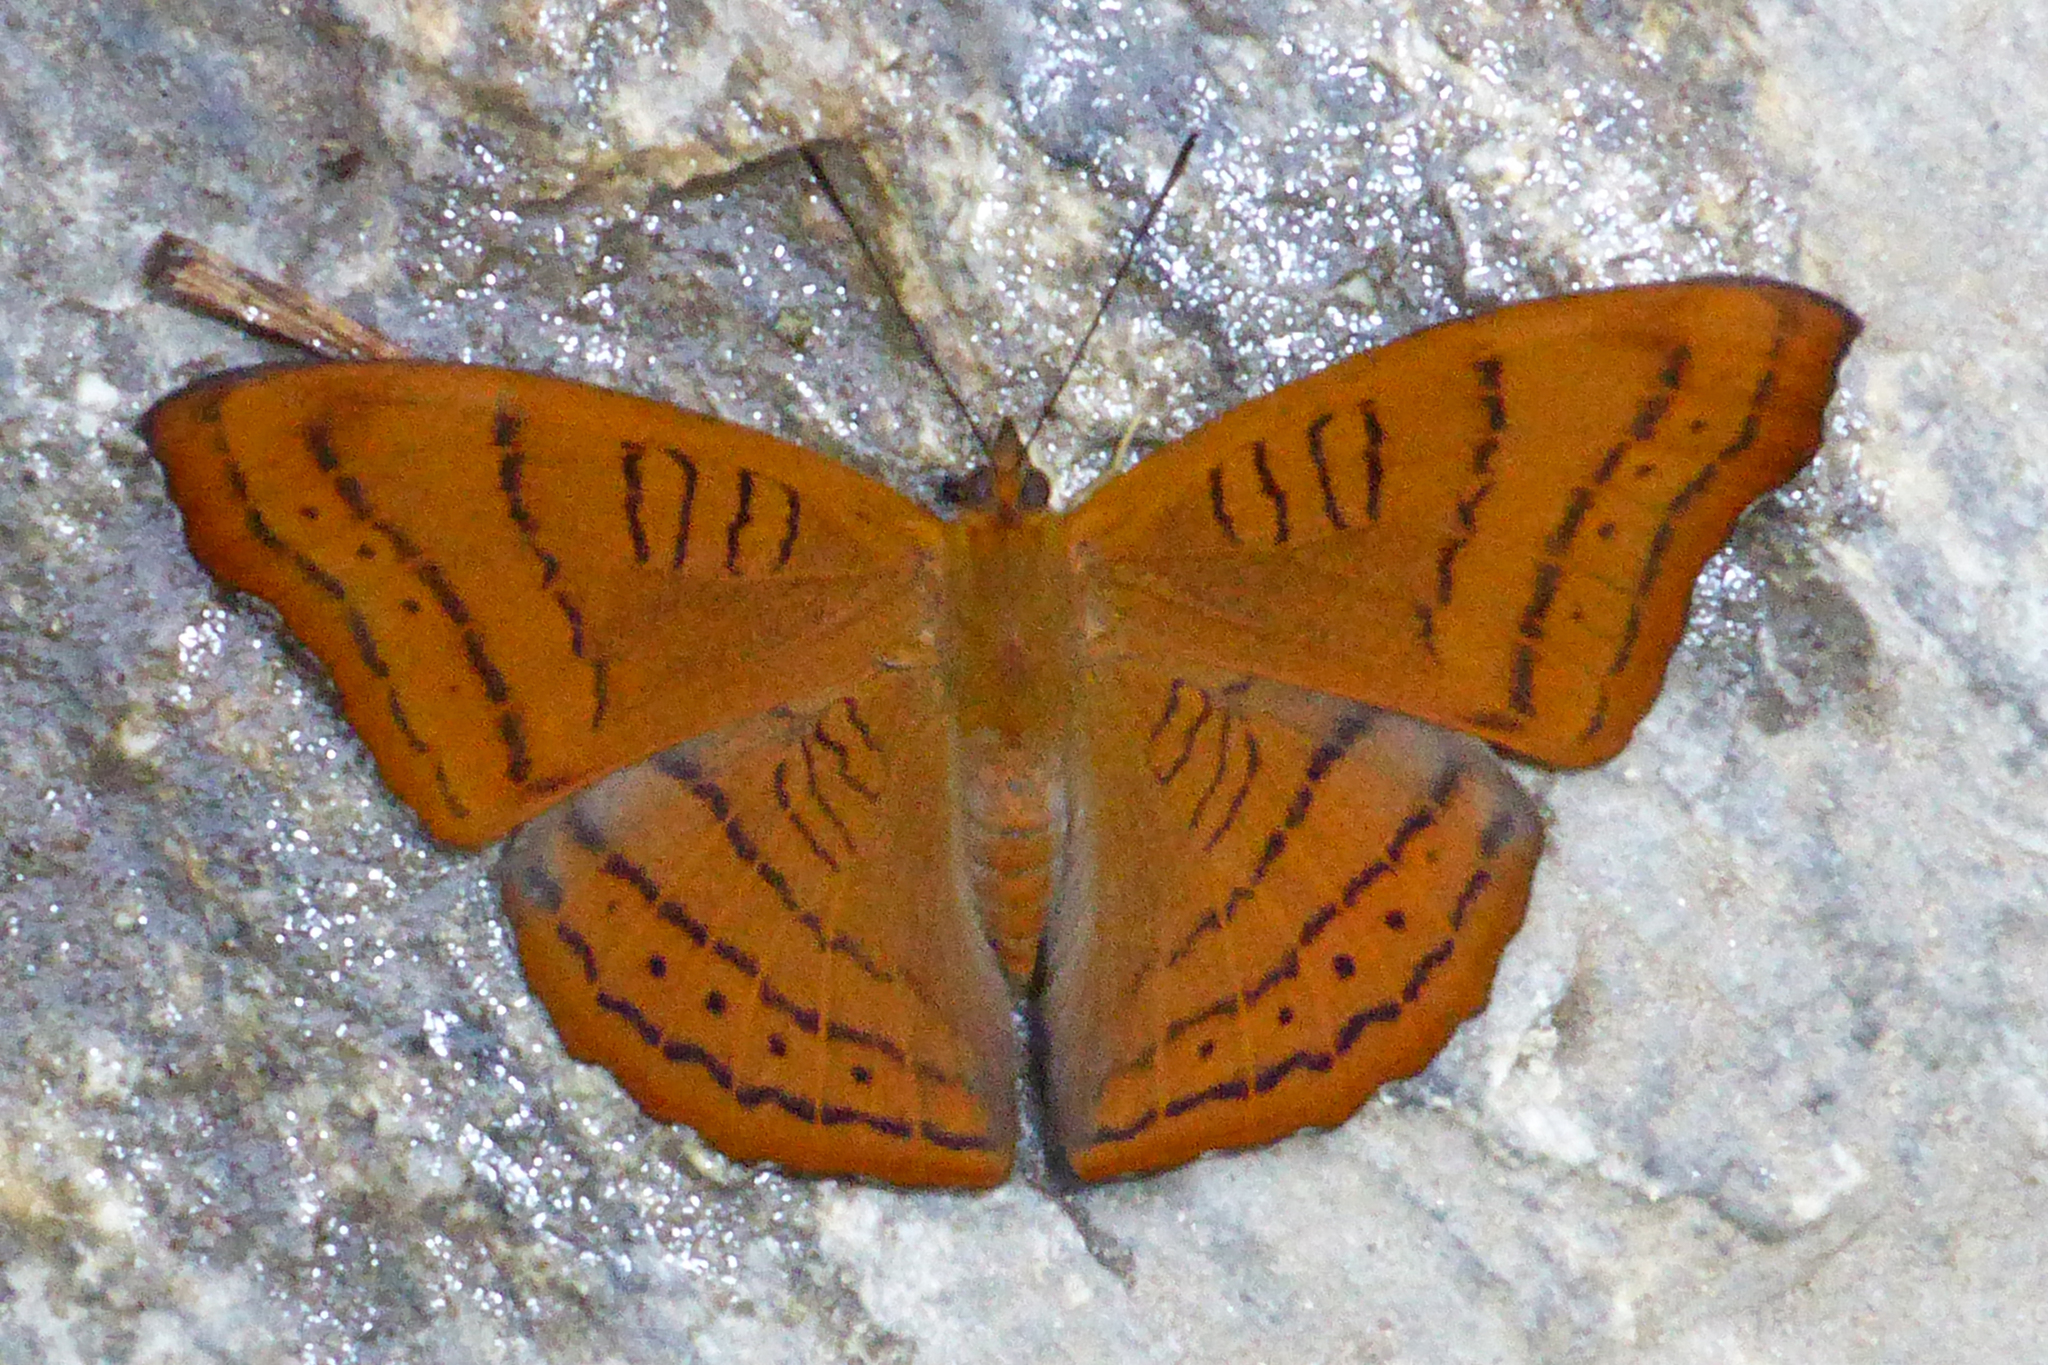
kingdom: Animalia
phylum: Arthropoda
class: Insecta
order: Lepidoptera
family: Nymphalidae
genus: Pseudergolis
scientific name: Pseudergolis wedah
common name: Tabby
